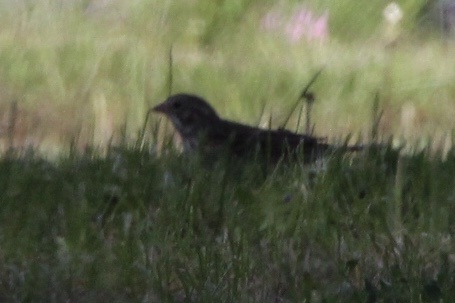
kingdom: Animalia
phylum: Chordata
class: Aves
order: Passeriformes
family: Passerellidae
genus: Pooecetes
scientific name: Pooecetes gramineus
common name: Vesper sparrow
